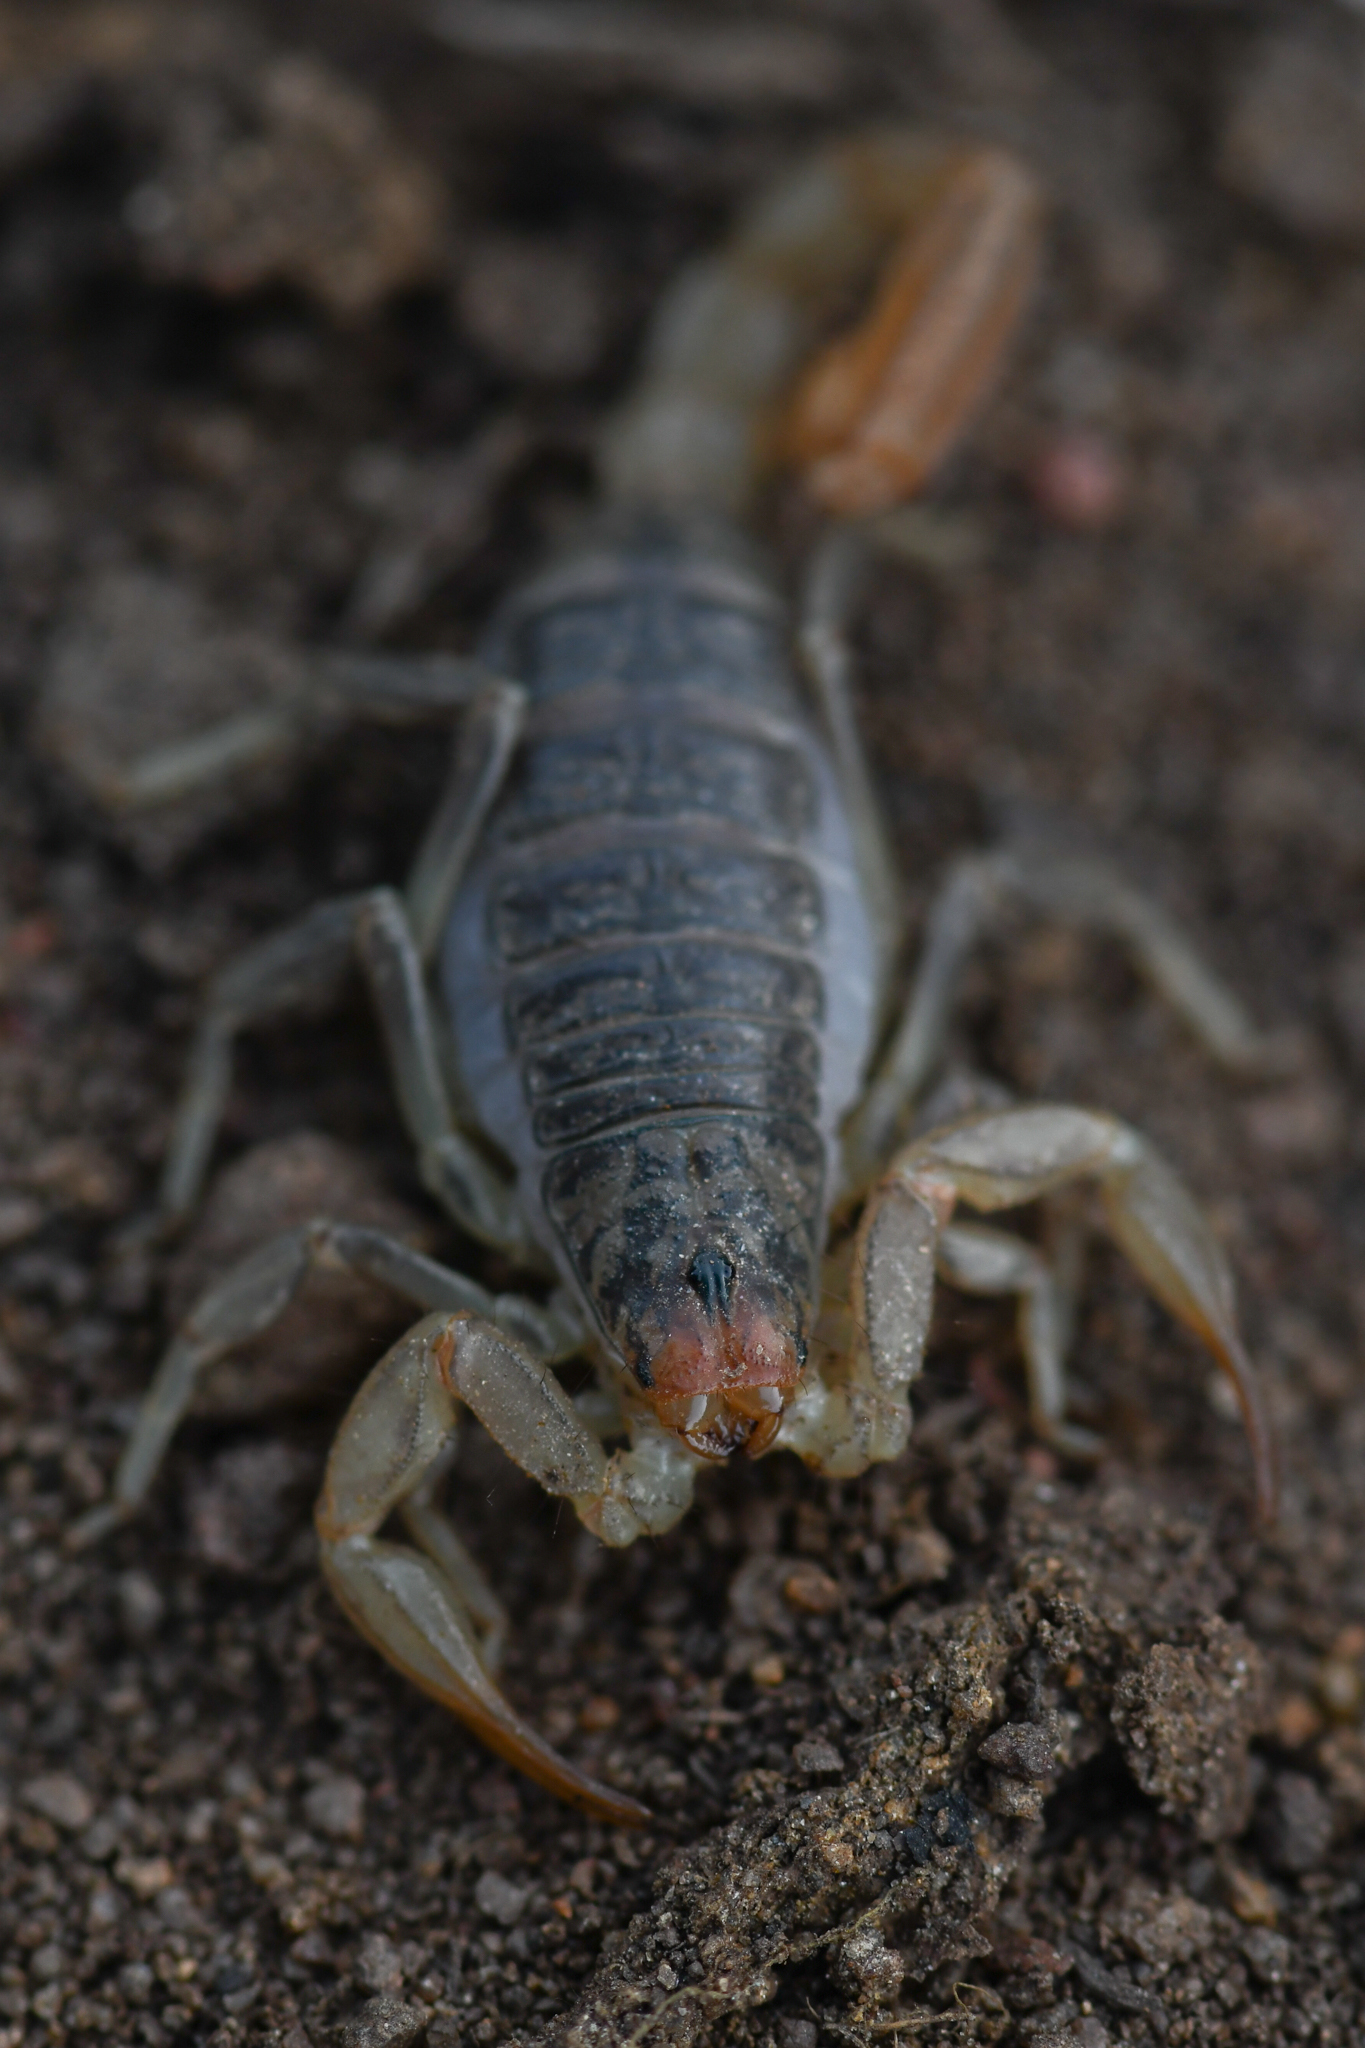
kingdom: Animalia
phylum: Arthropoda
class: Arachnida
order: Scorpiones
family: Vaejovidae
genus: Paruroctonus
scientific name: Paruroctonus silvestrii
